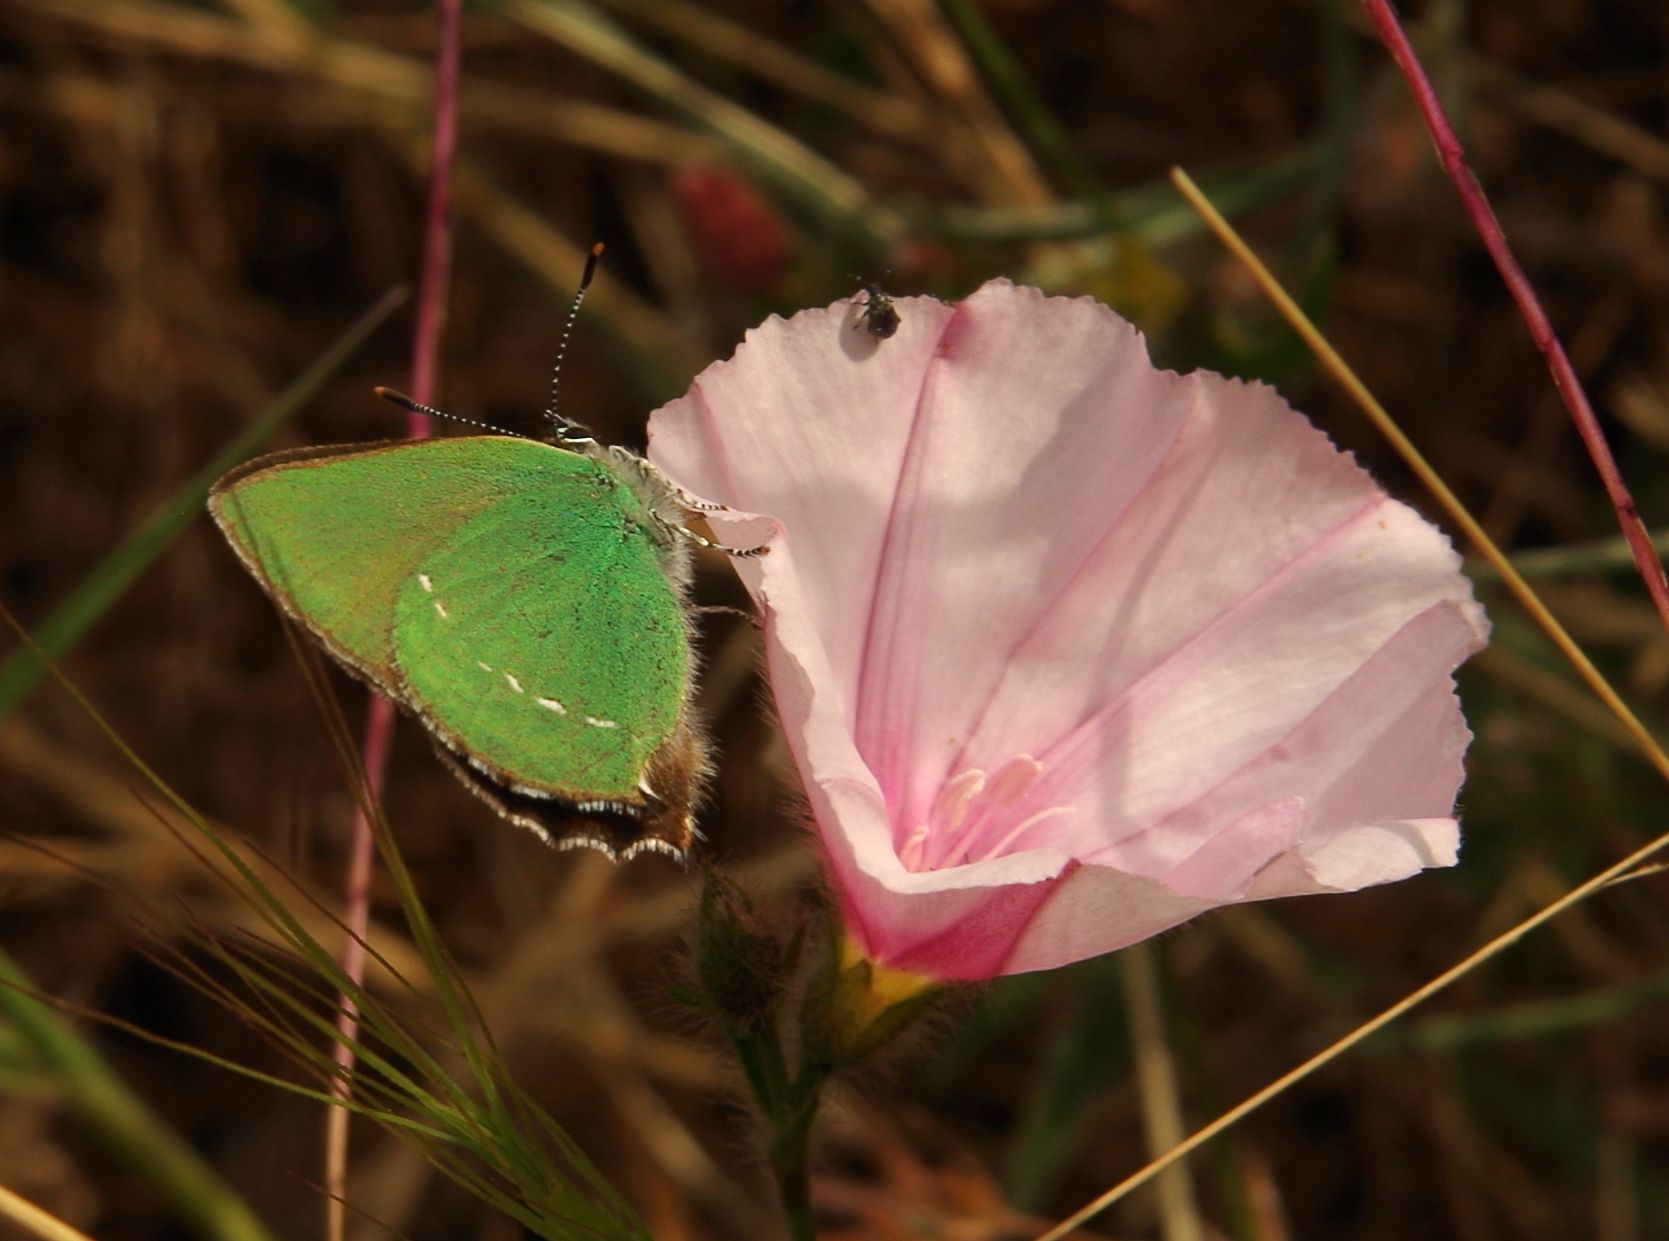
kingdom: Animalia
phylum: Arthropoda
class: Insecta
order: Lepidoptera
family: Lycaenidae
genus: Callophrys
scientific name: Callophrys rubi
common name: Green hairstreak
